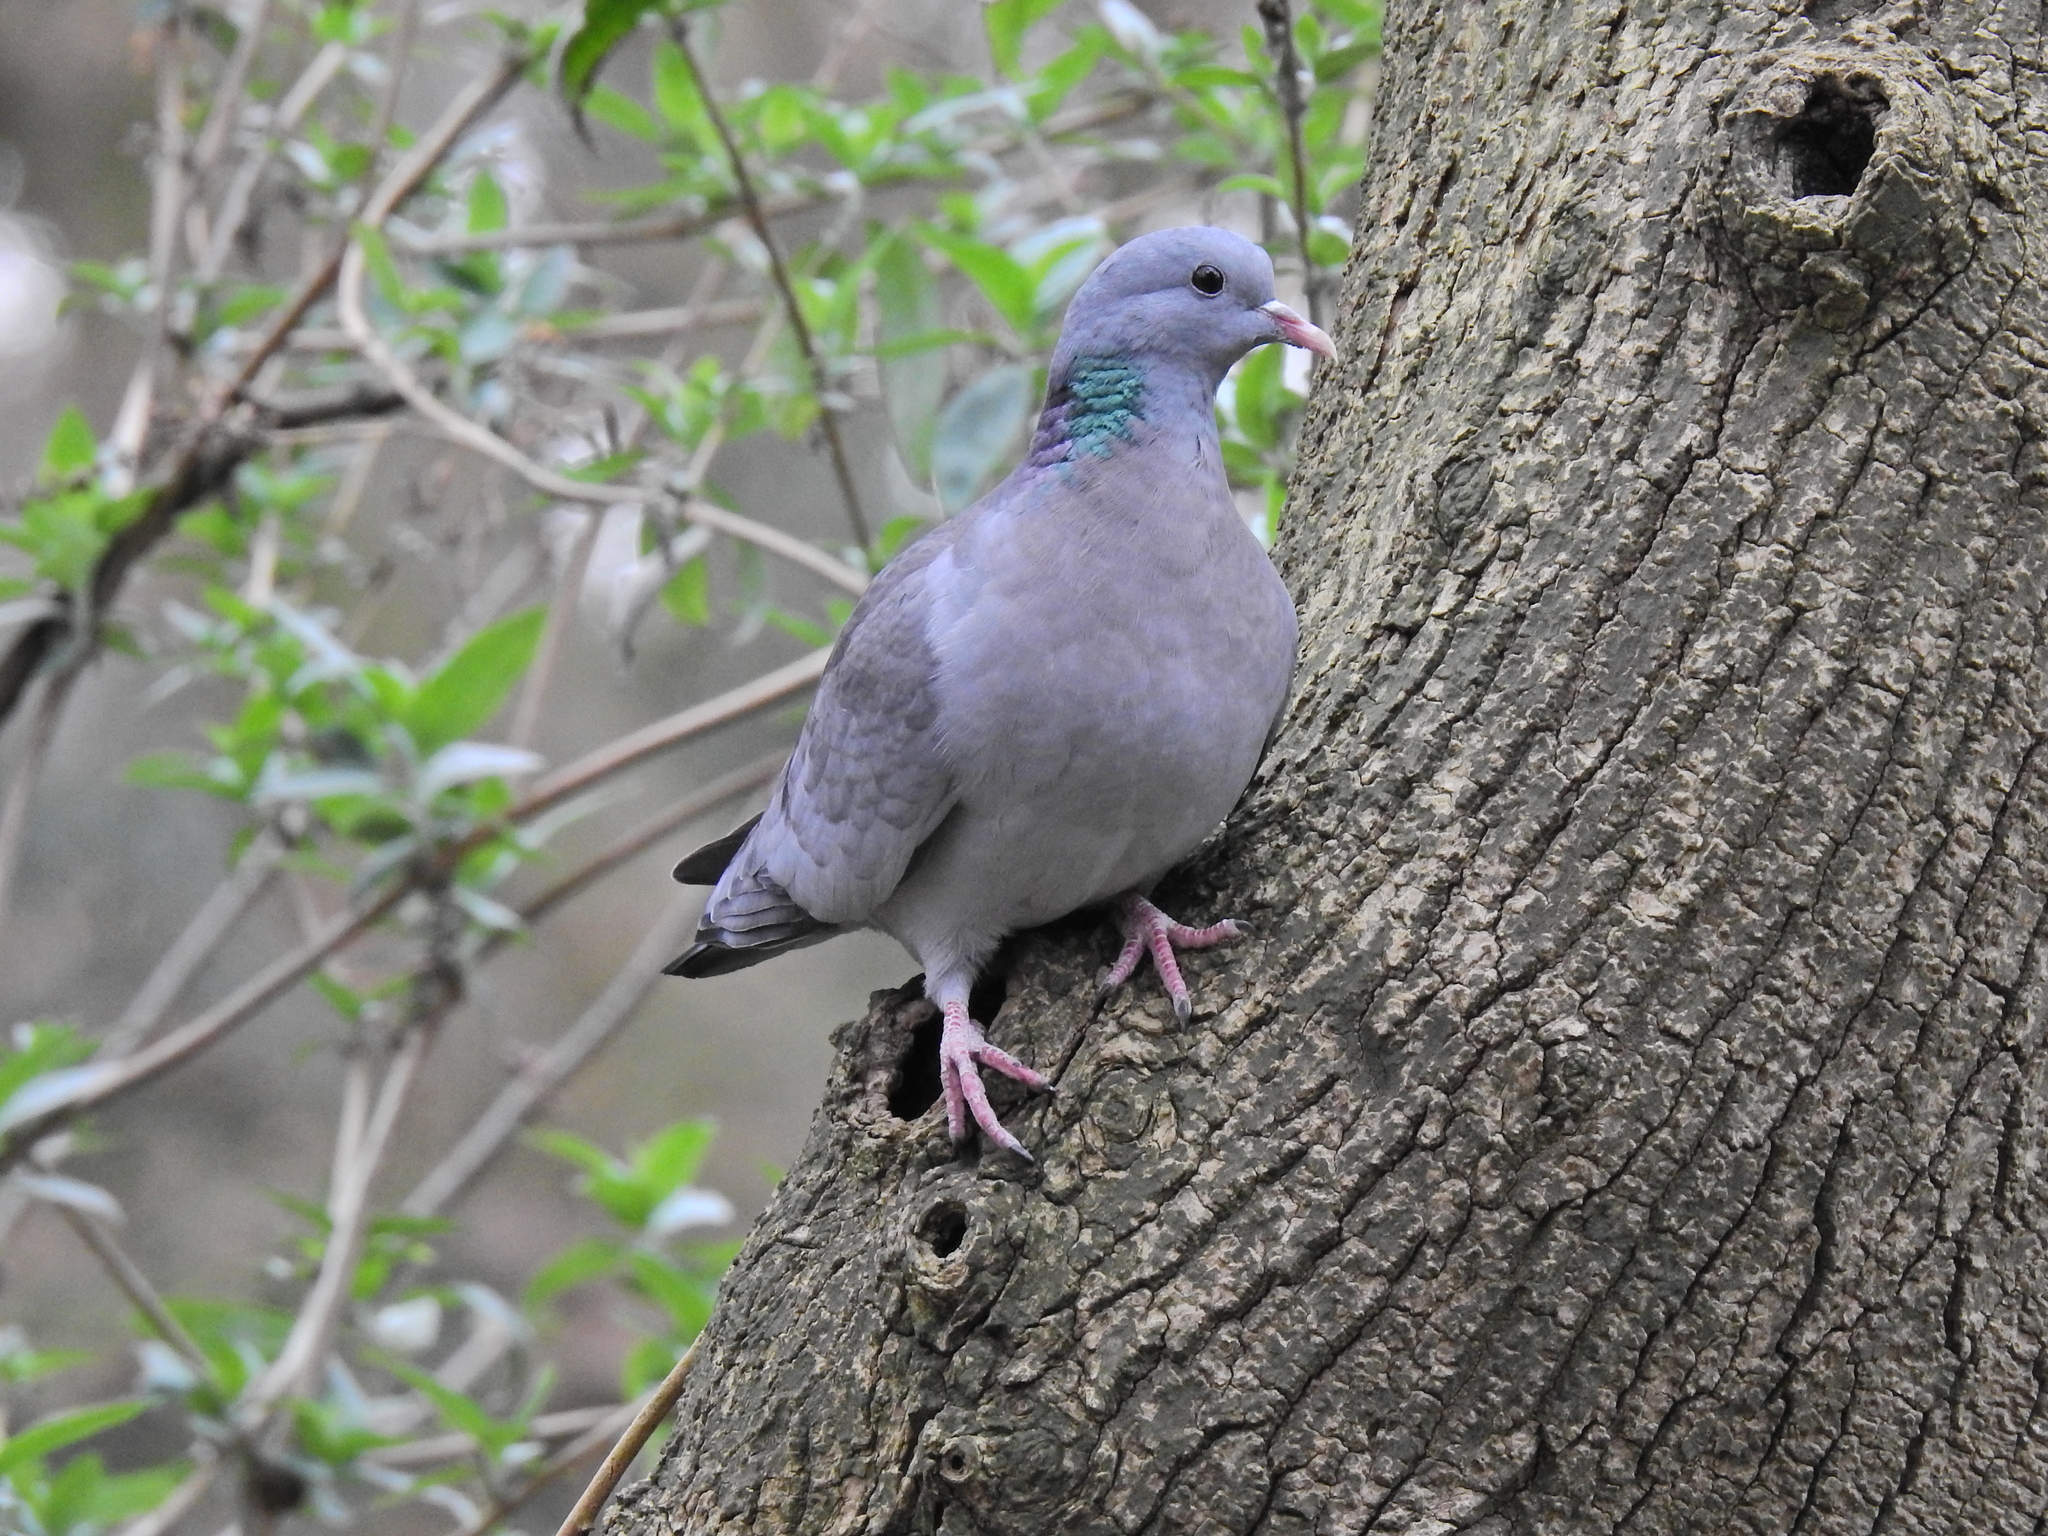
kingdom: Animalia
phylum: Chordata
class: Aves
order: Columbiformes
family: Columbidae
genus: Columba
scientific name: Columba oenas
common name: Stock dove
